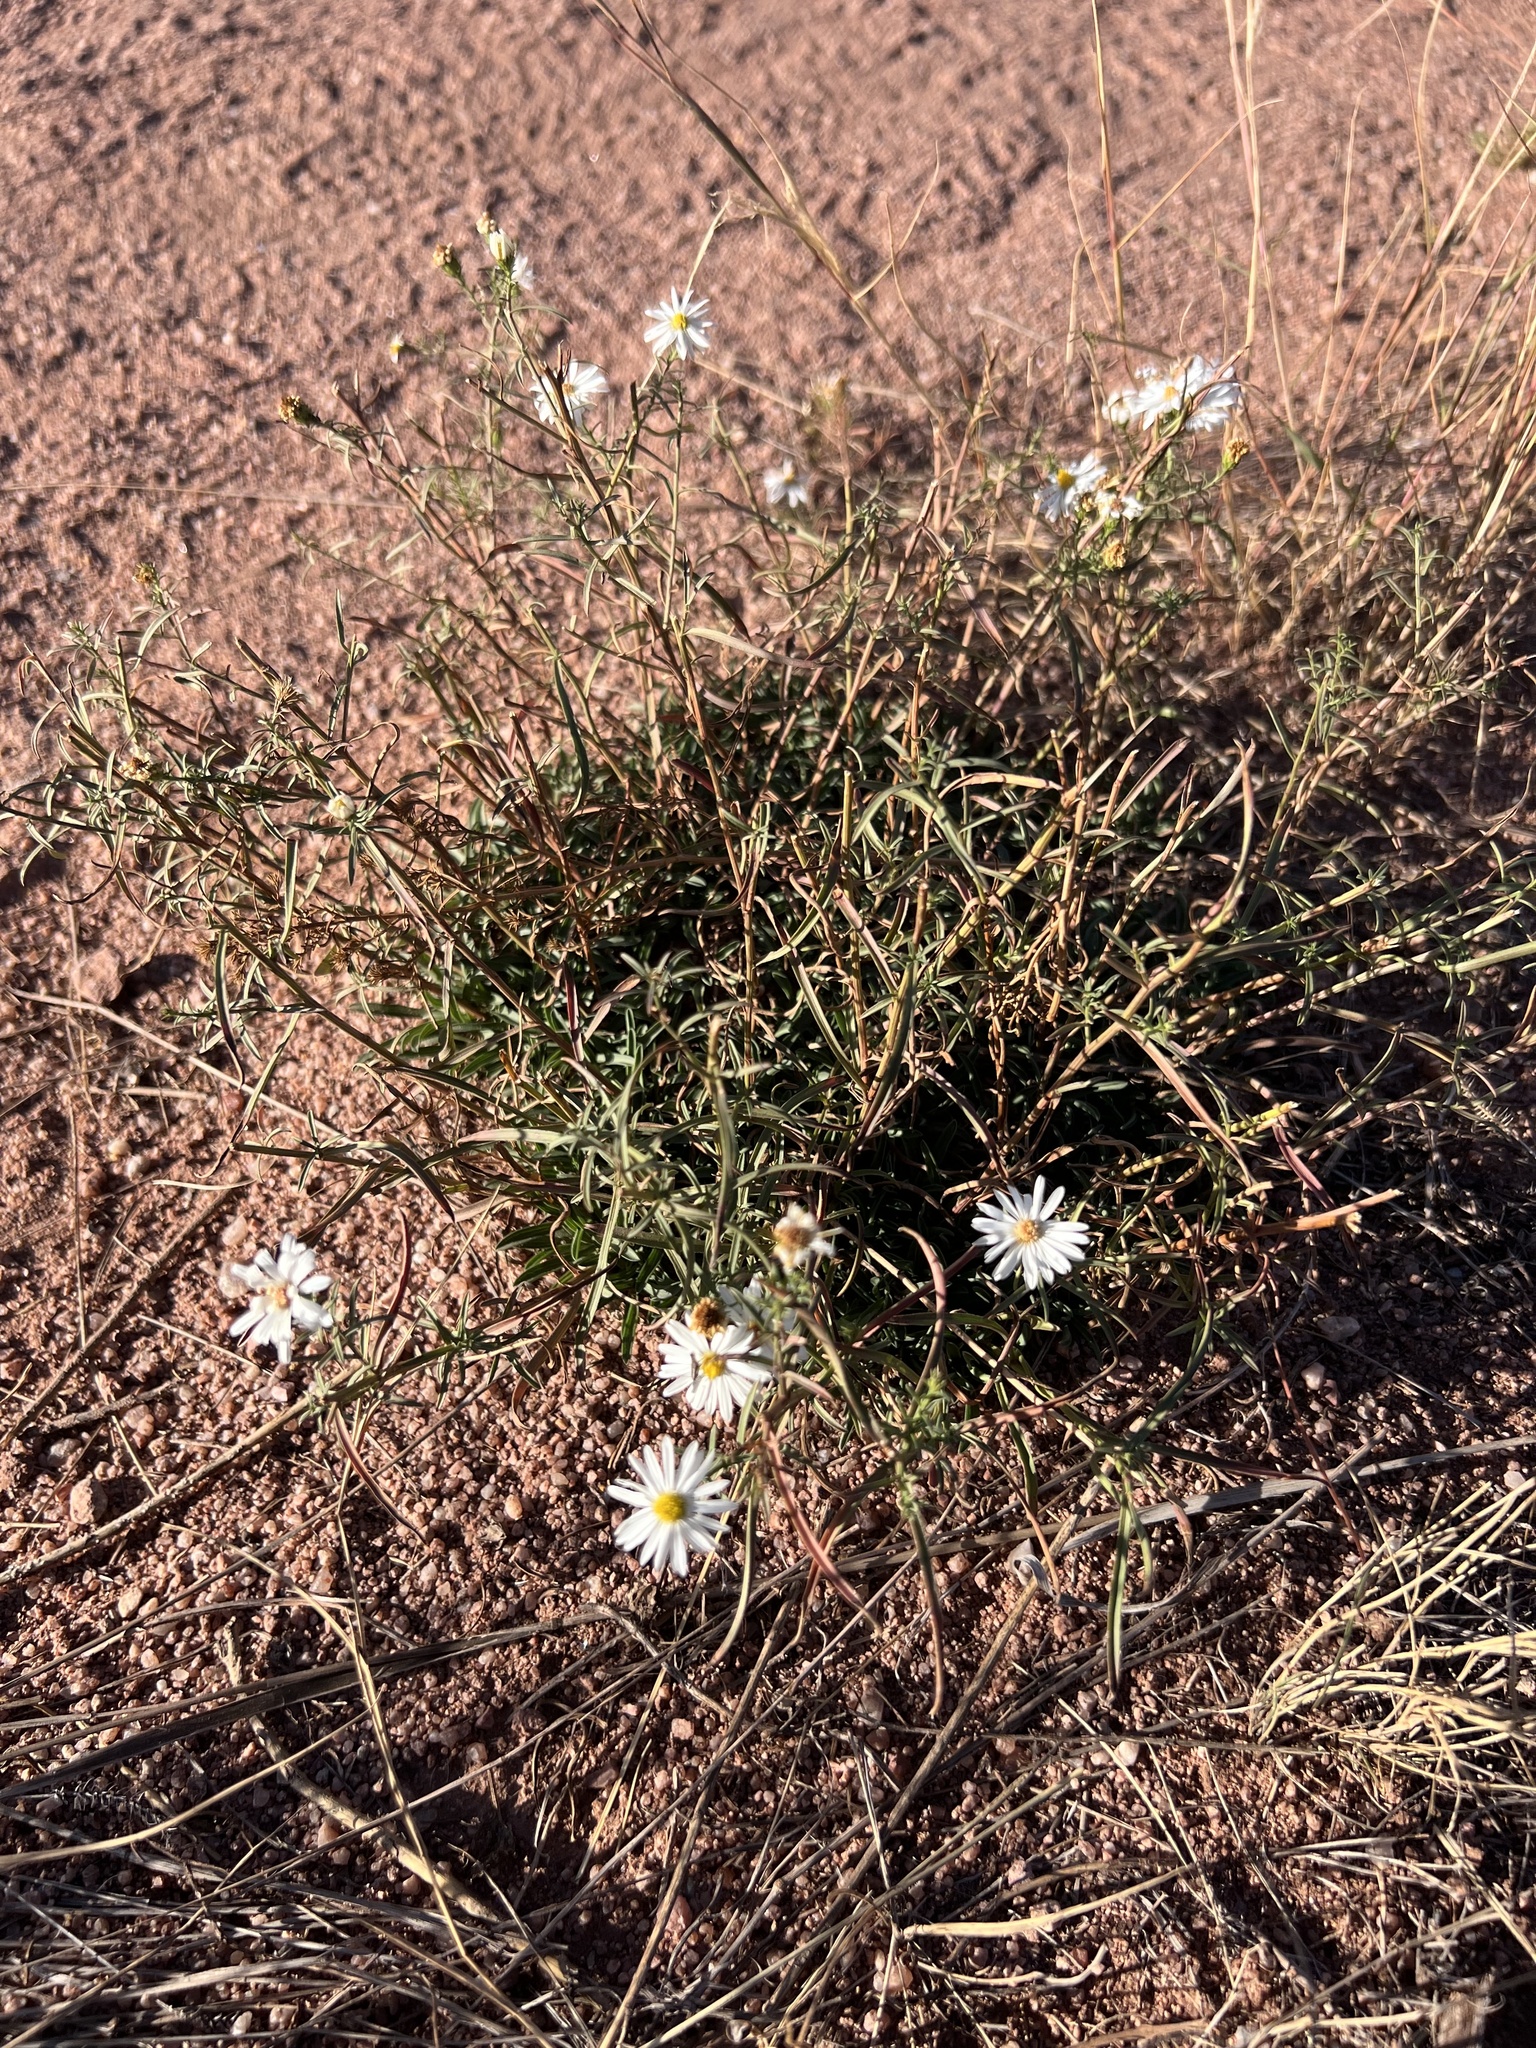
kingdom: Plantae
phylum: Tracheophyta
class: Magnoliopsida
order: Asterales
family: Asteraceae
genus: Symphyotrichum
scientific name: Symphyotrichum porteri
